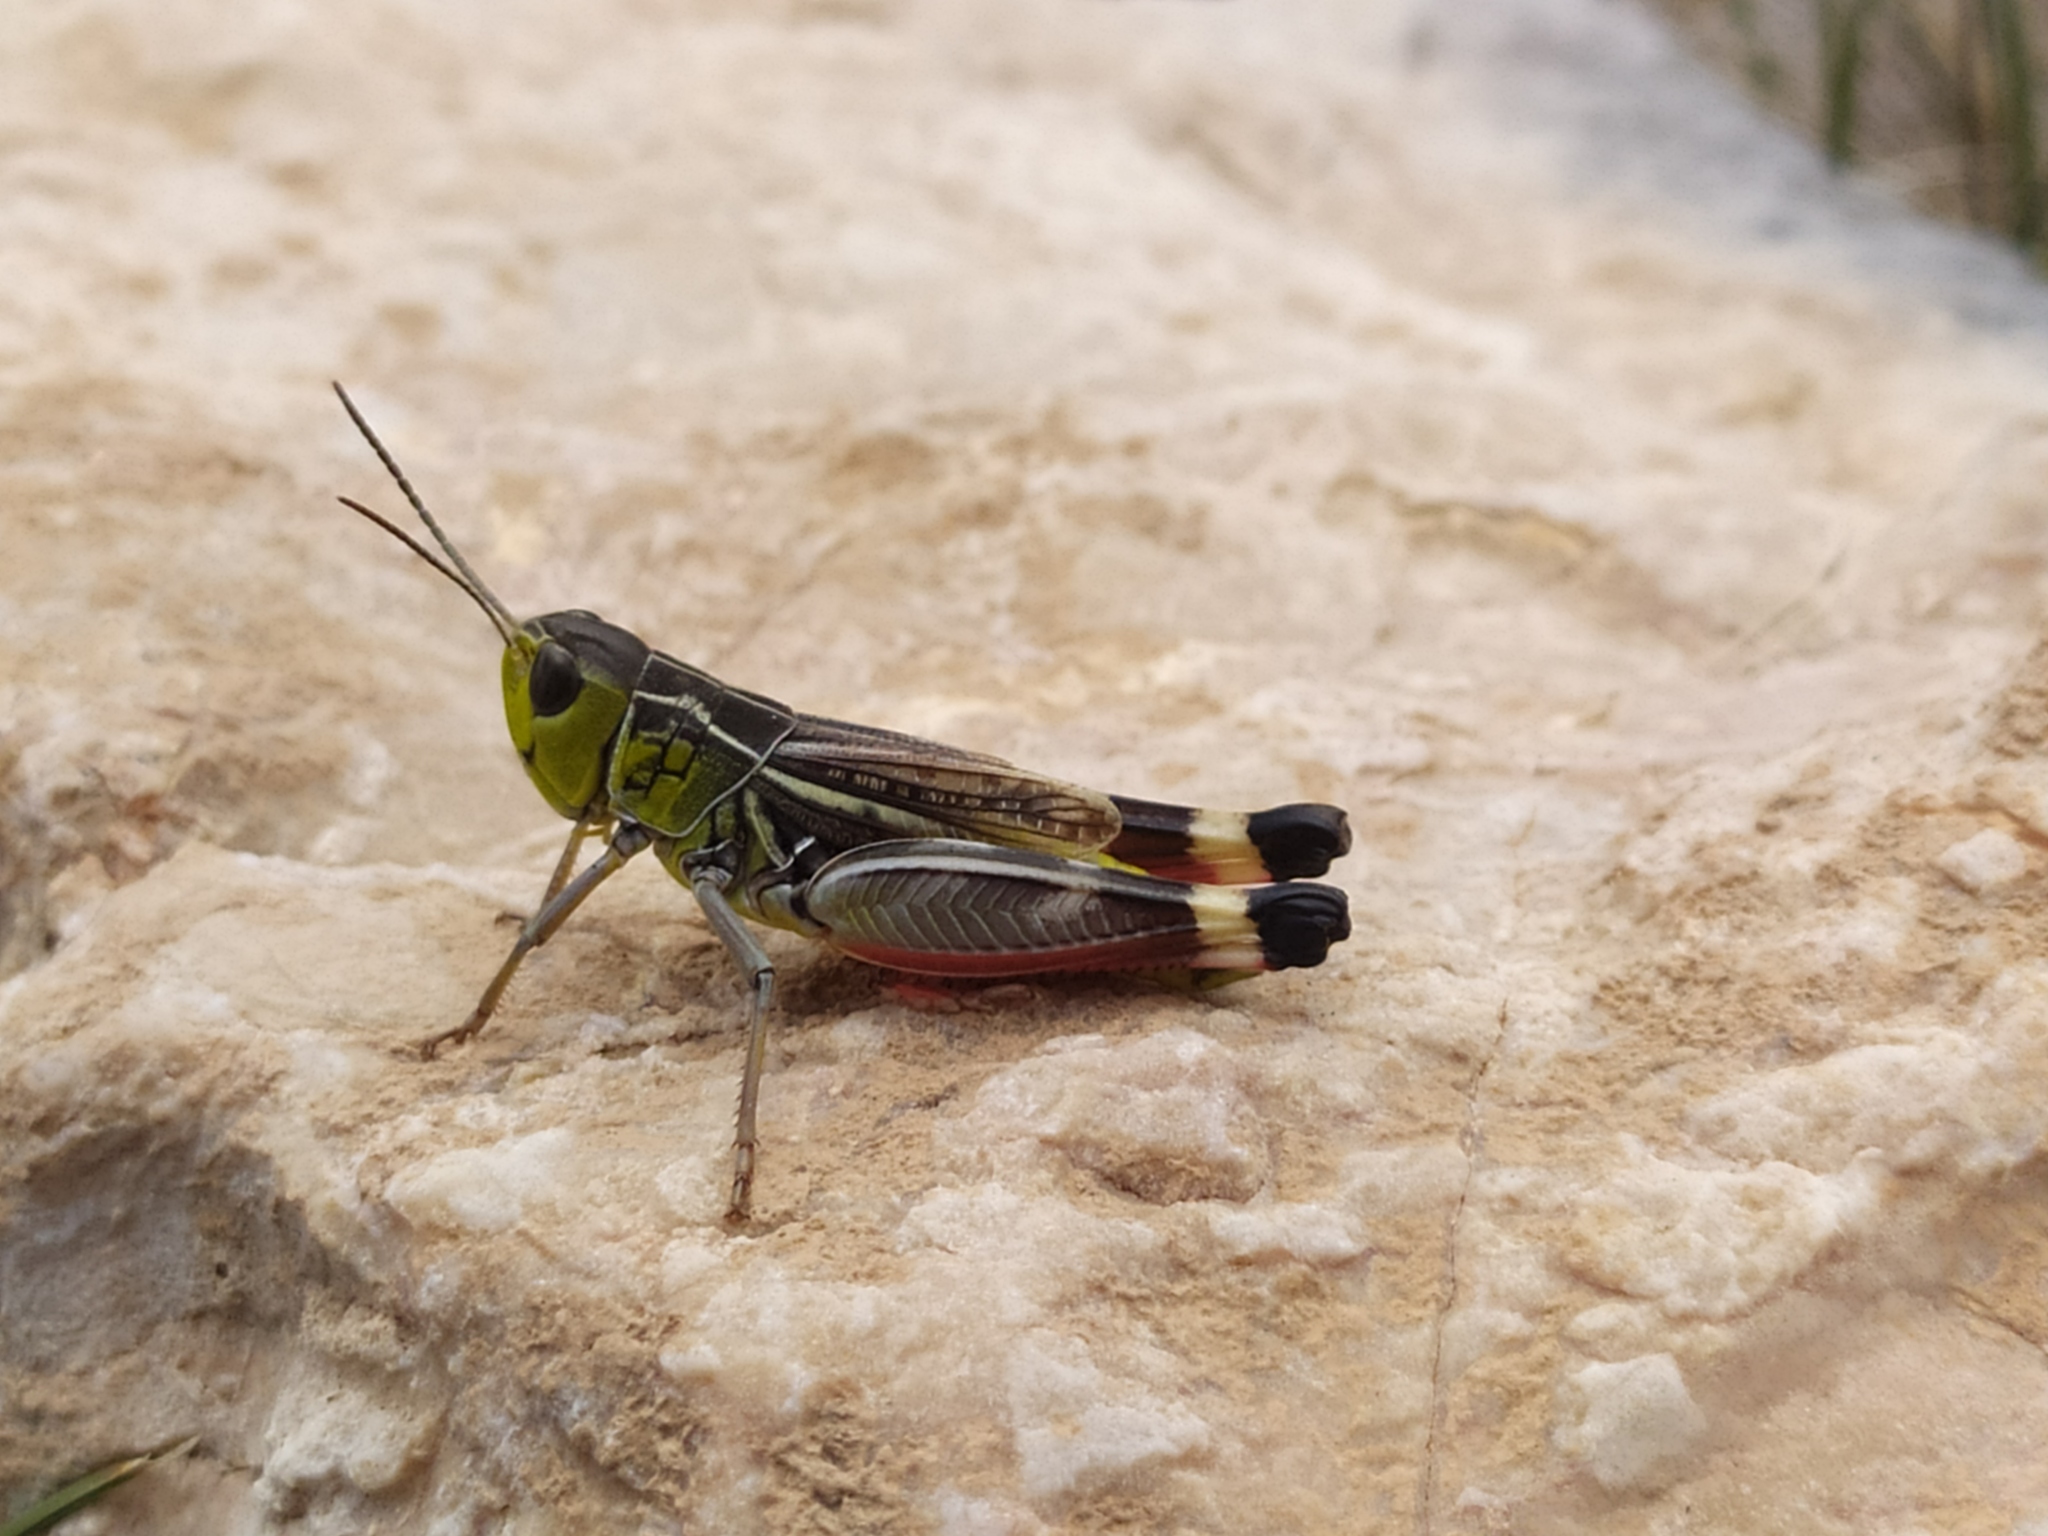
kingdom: Animalia
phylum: Arthropoda
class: Insecta
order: Orthoptera
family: Acrididae
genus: Arcyptera
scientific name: Arcyptera brevipennis
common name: Western banded grasshopper
